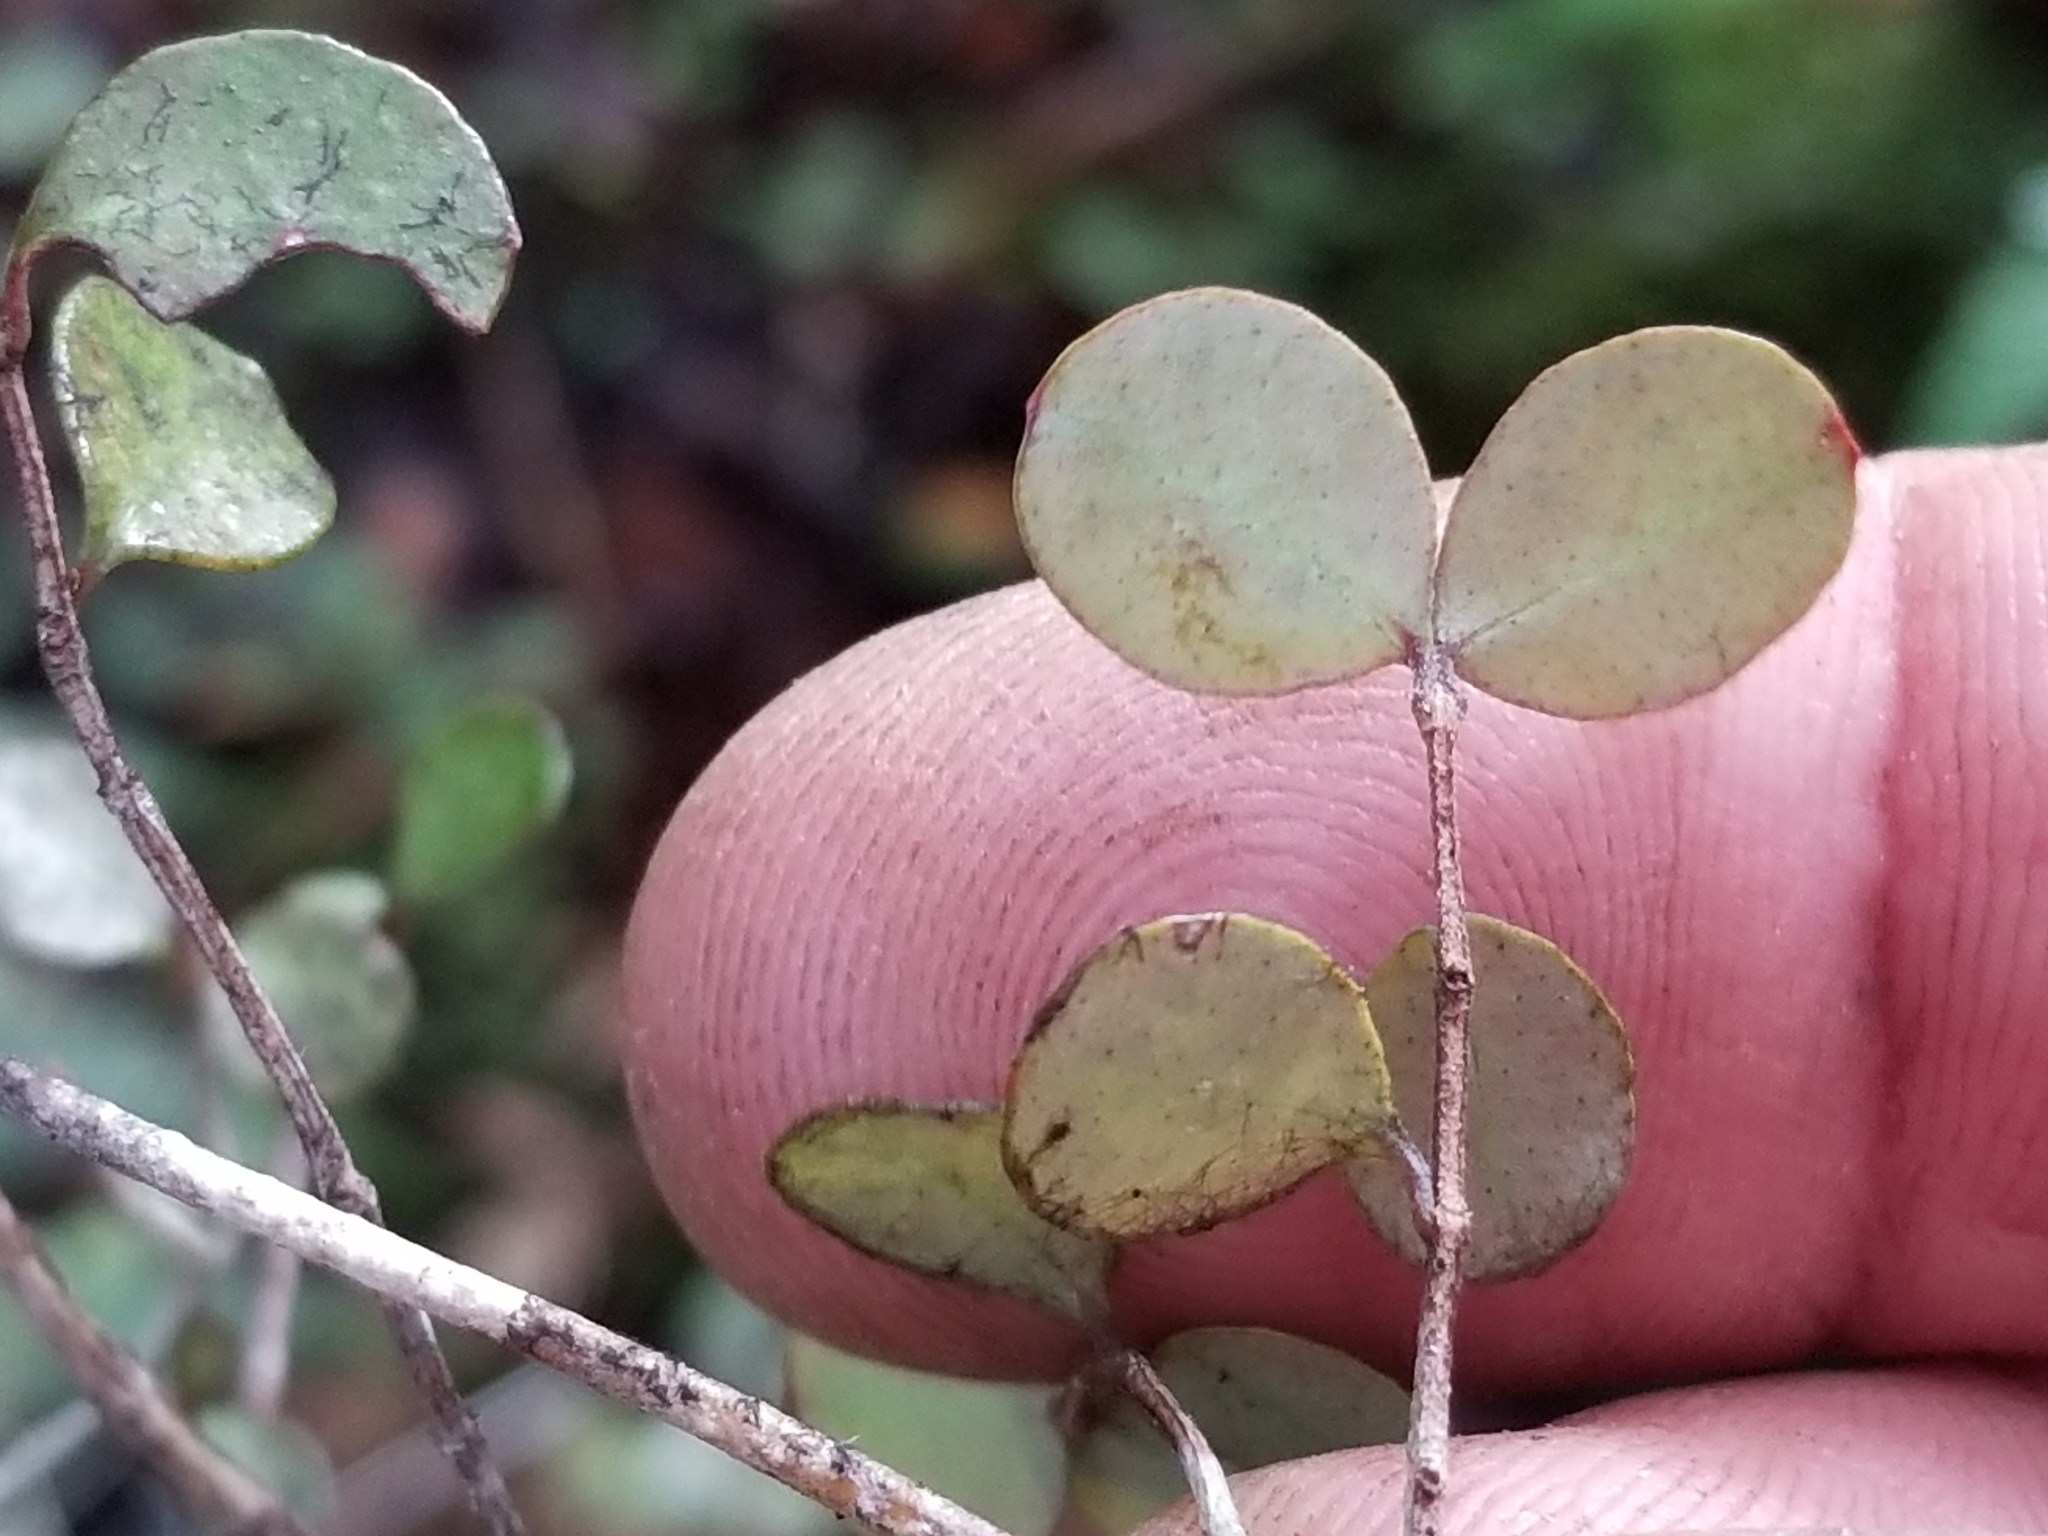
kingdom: Plantae
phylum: Tracheophyta
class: Magnoliopsida
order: Myrtales
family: Myrtaceae
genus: Neomyrtus
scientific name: Neomyrtus pedunculata
